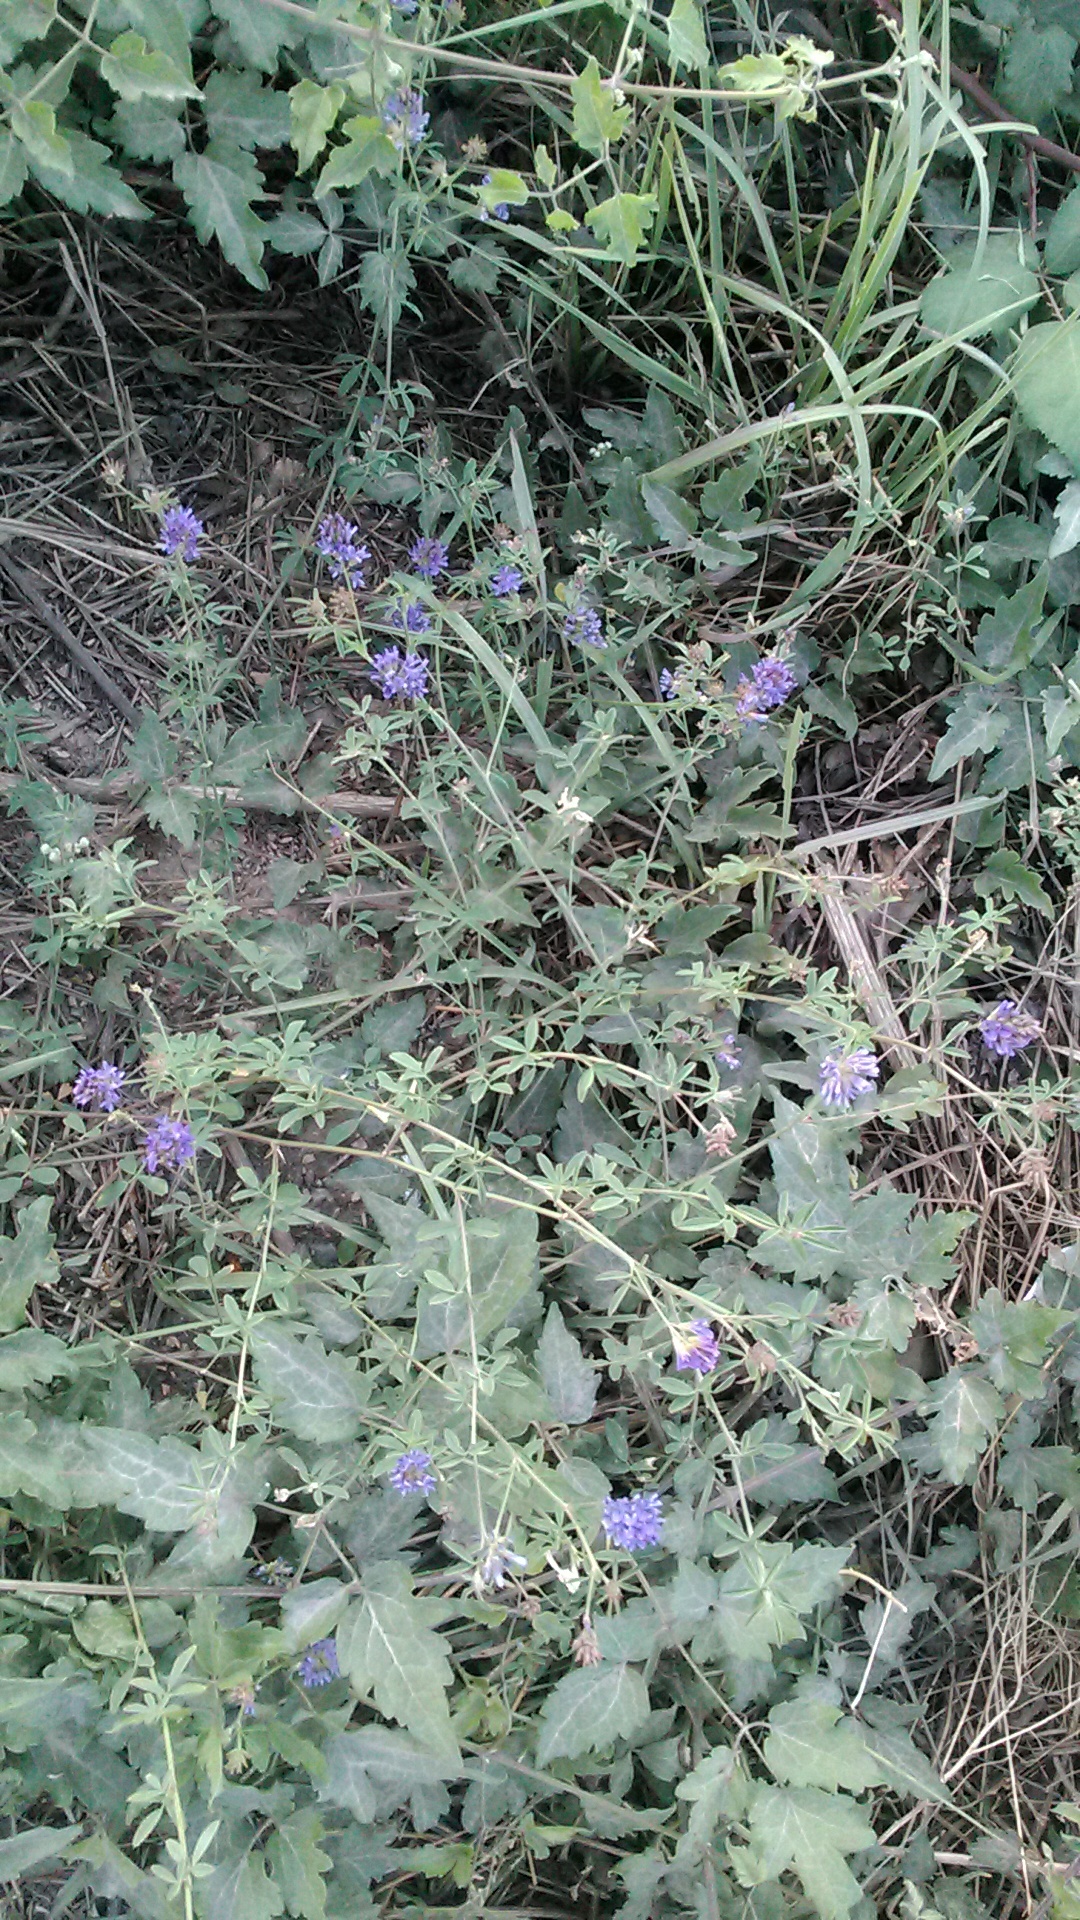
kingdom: Plantae
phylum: Tracheophyta
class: Magnoliopsida
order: Fabales
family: Fabaceae
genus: Medicago
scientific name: Medicago sativa
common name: Alfalfa
